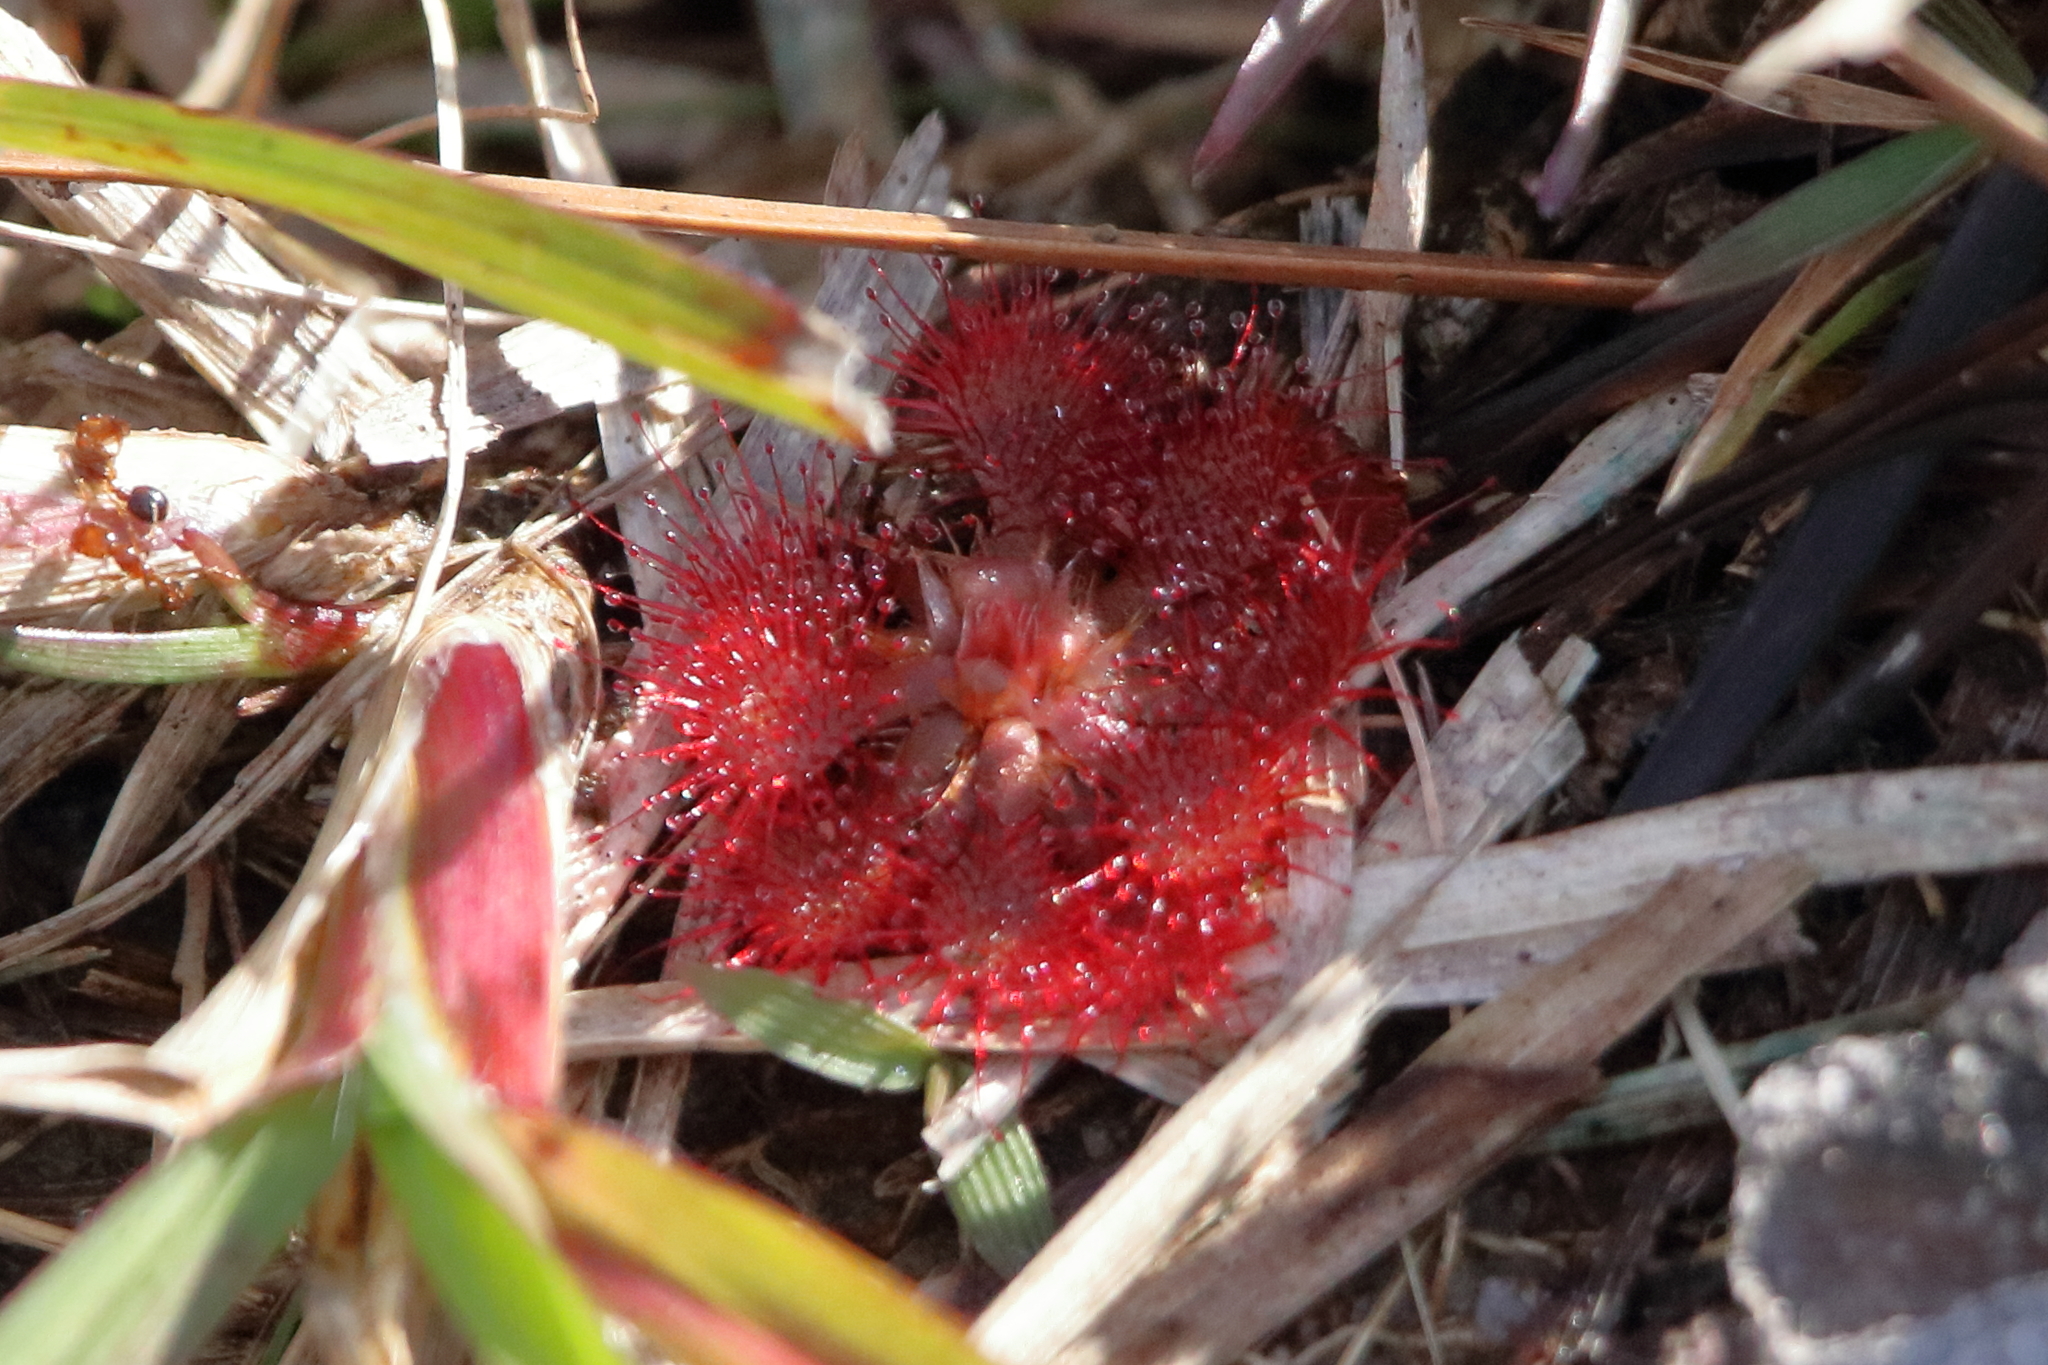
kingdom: Plantae
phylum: Tracheophyta
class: Magnoliopsida
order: Caryophyllales
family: Droseraceae
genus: Drosera
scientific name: Drosera capillaris
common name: Pink sundew
